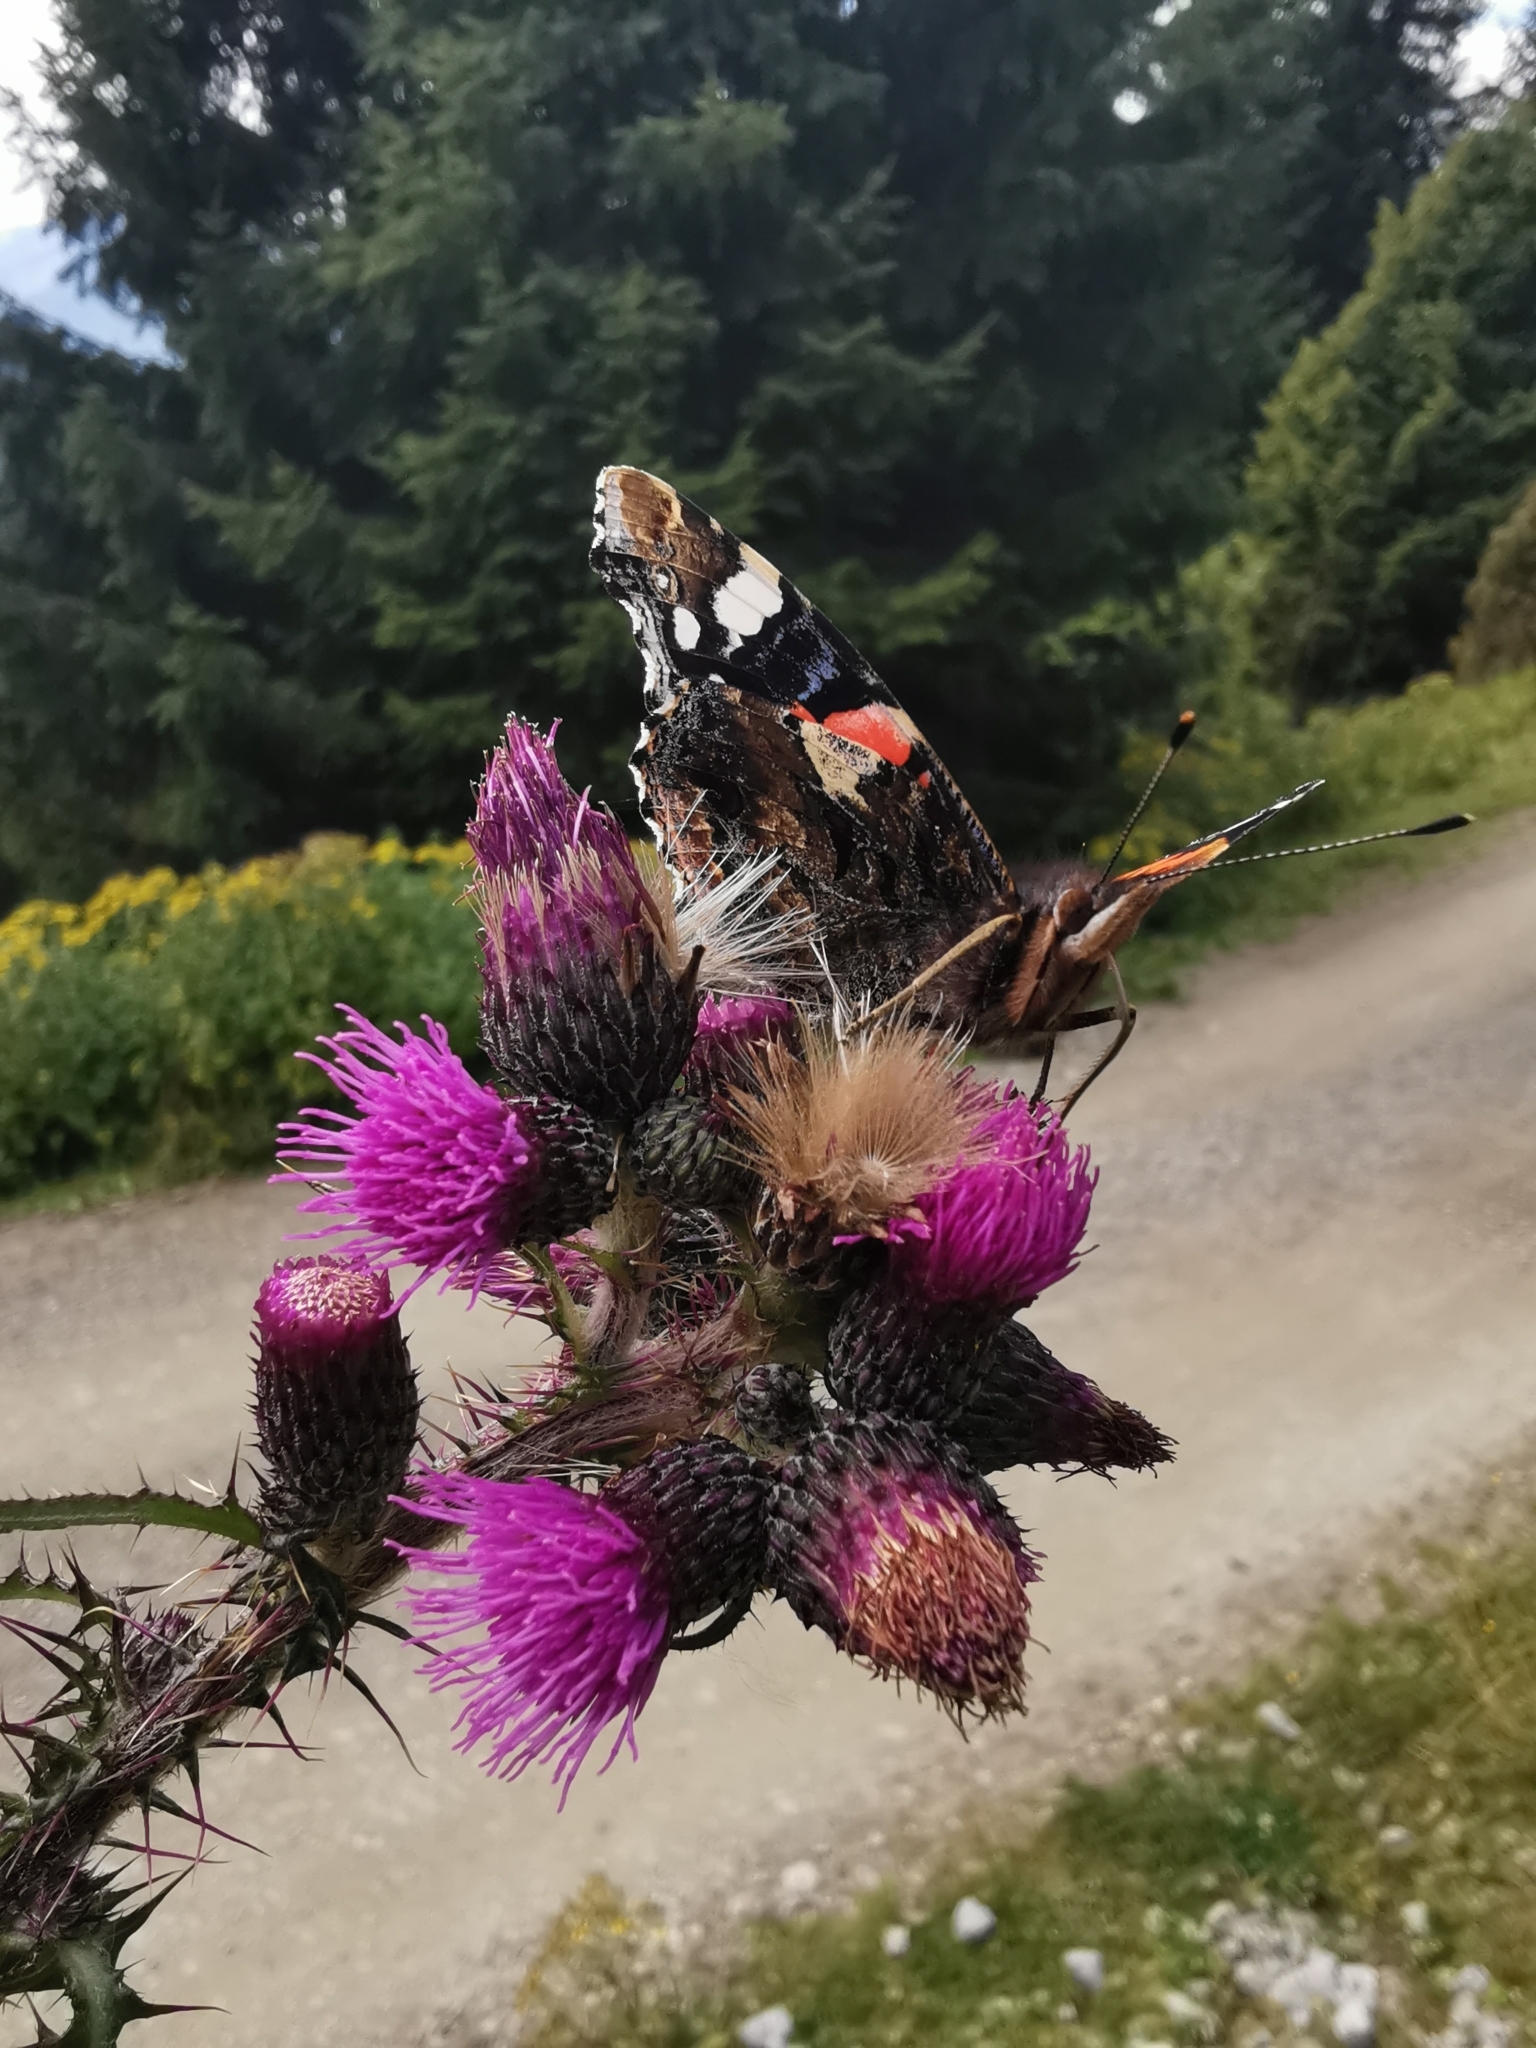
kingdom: Animalia
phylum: Arthropoda
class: Insecta
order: Lepidoptera
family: Nymphalidae
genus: Vanessa
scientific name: Vanessa atalanta
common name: Red admiral
